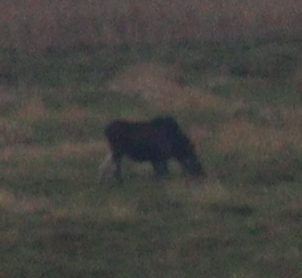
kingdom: Animalia
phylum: Chordata
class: Mammalia
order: Artiodactyla
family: Cervidae
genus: Alces
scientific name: Alces alces
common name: Moose
